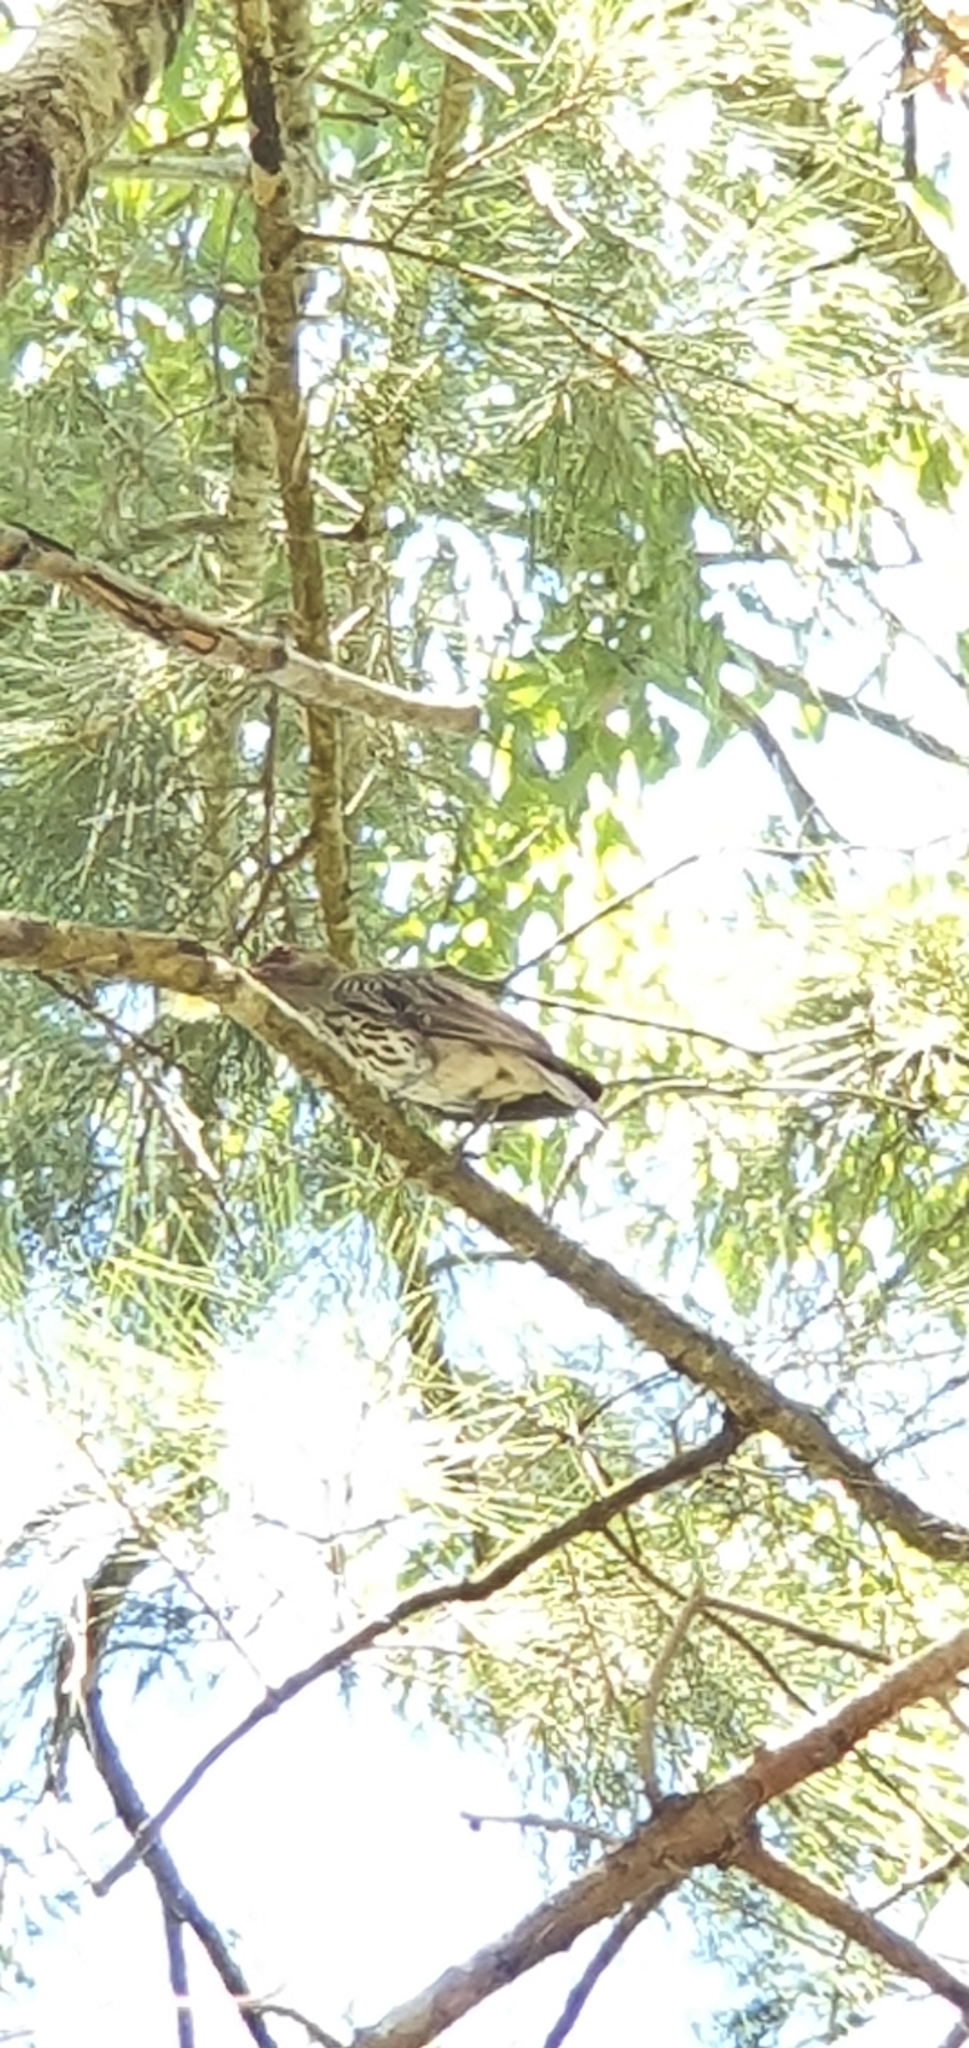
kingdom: Animalia
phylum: Chordata
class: Aves
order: Passeriformes
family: Oriolidae
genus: Oriolus
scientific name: Oriolus sagittatus
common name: Olive-backed oriole
